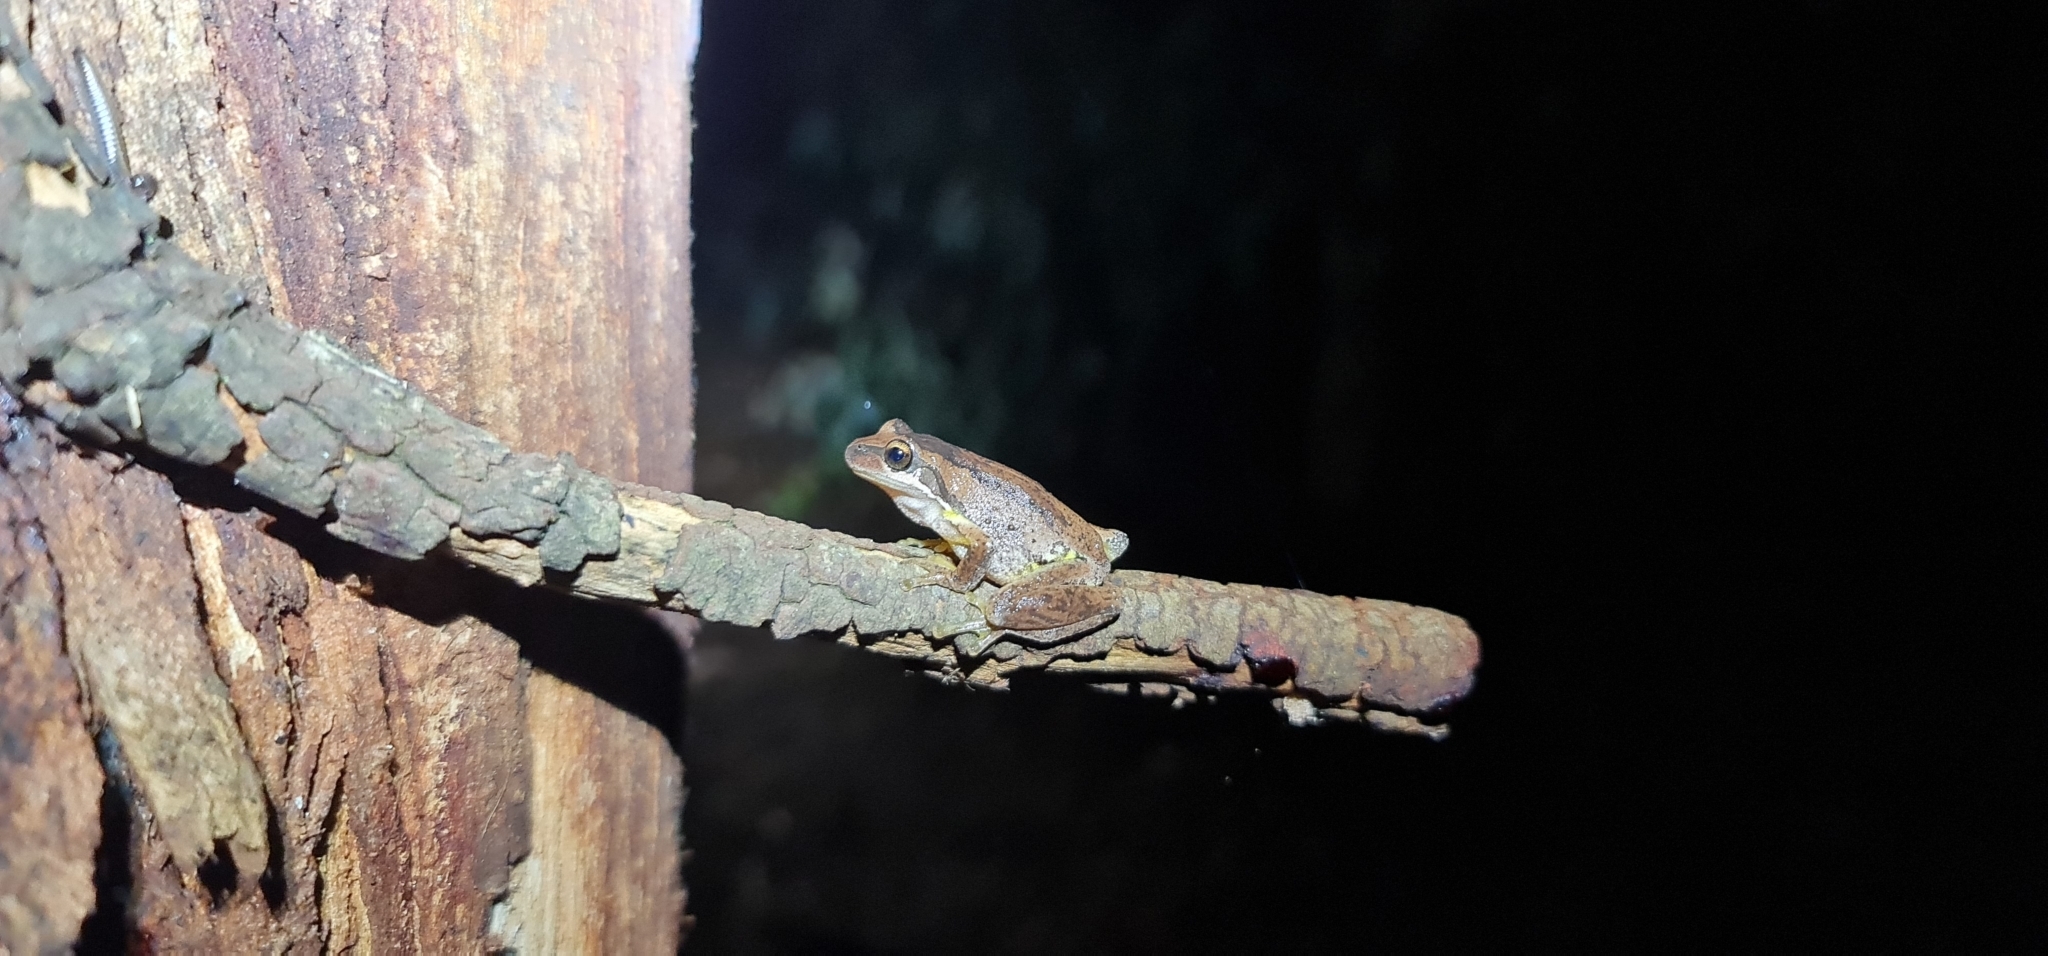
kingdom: Animalia
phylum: Chordata
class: Amphibia
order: Anura
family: Pelodryadidae
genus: Litoria
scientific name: Litoria
